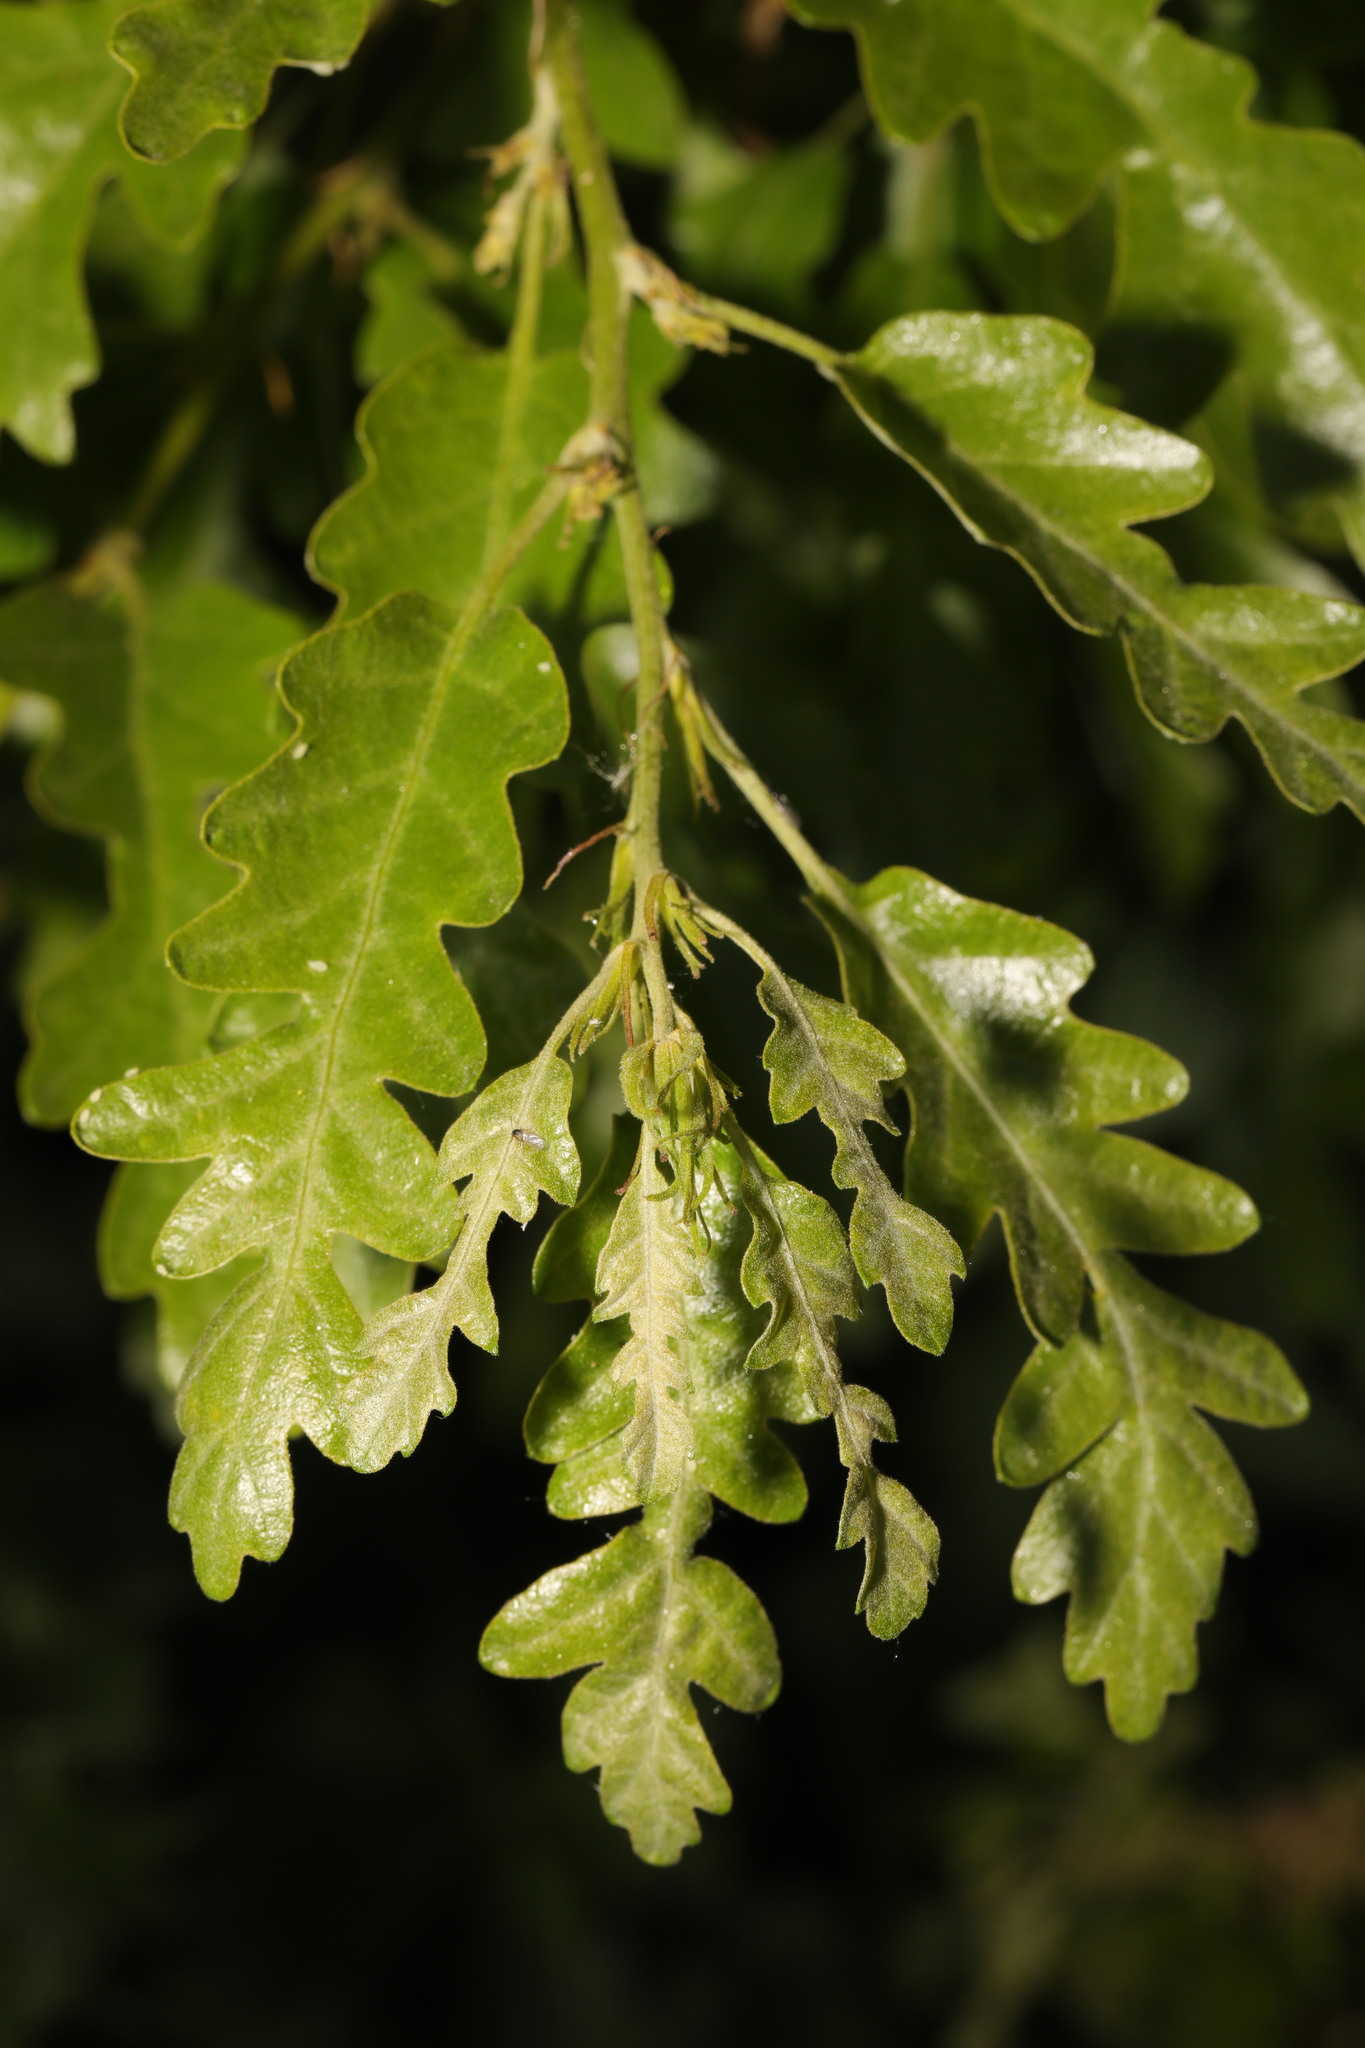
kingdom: Plantae
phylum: Tracheophyta
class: Magnoliopsida
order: Fagales
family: Fagaceae
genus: Quercus
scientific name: Quercus cerris
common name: Turkey oak
